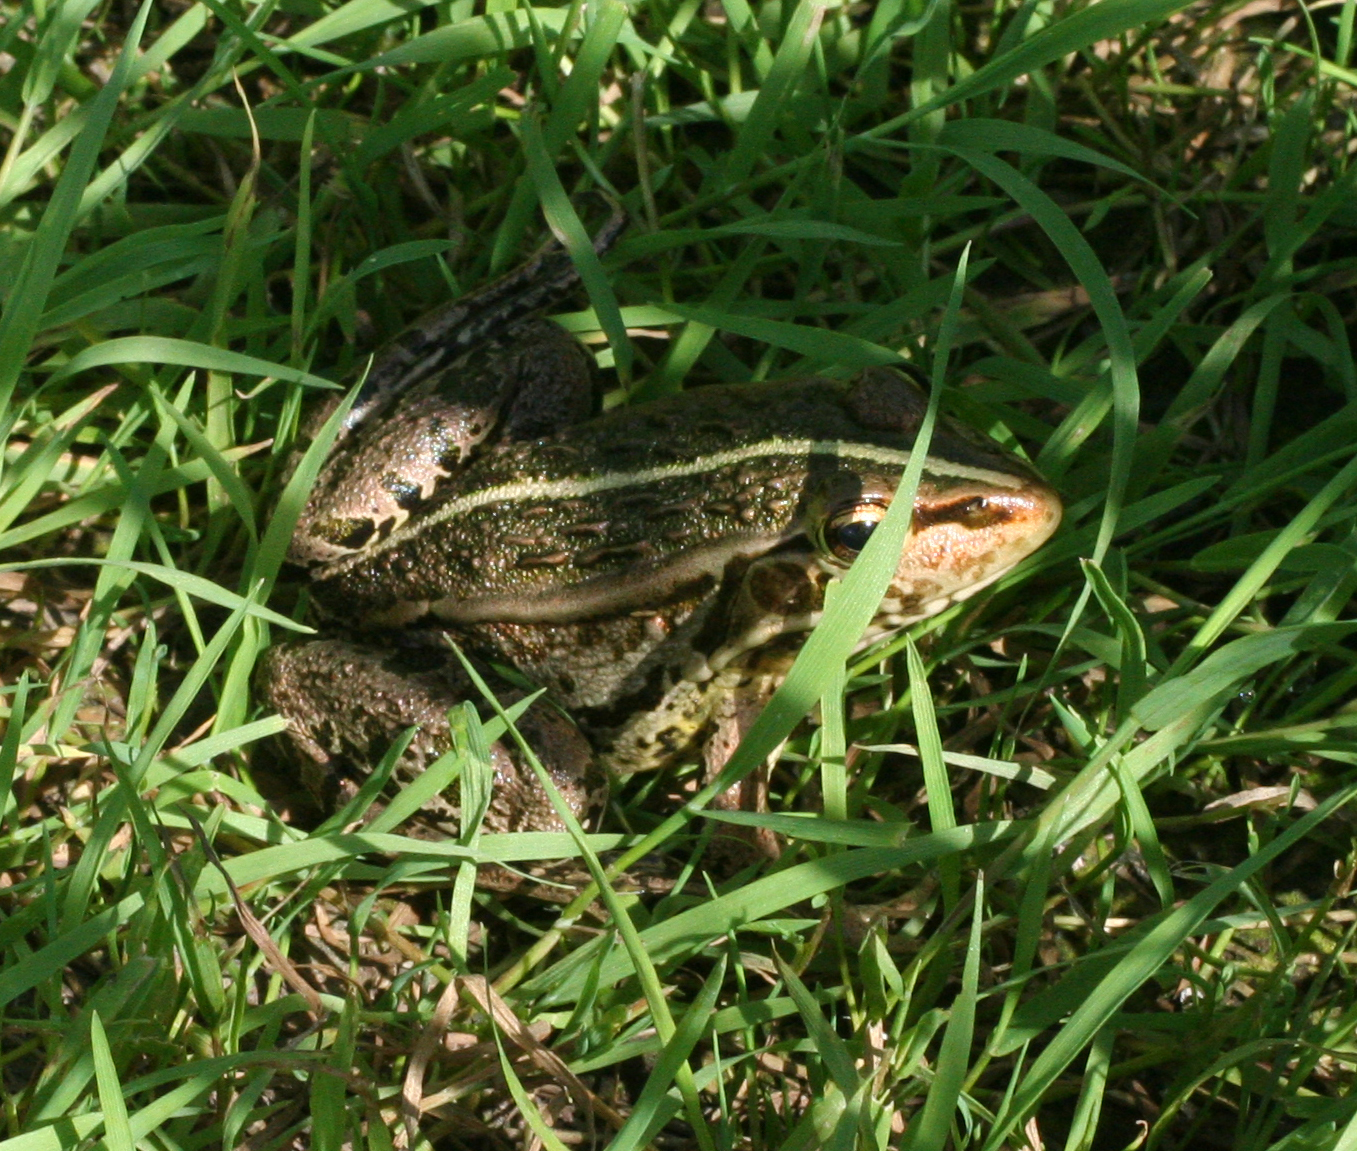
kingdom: Animalia
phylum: Chordata
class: Amphibia
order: Anura
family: Ranidae
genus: Pelophylax
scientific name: Pelophylax nigromaculatus
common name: Black-spotted pond frog
